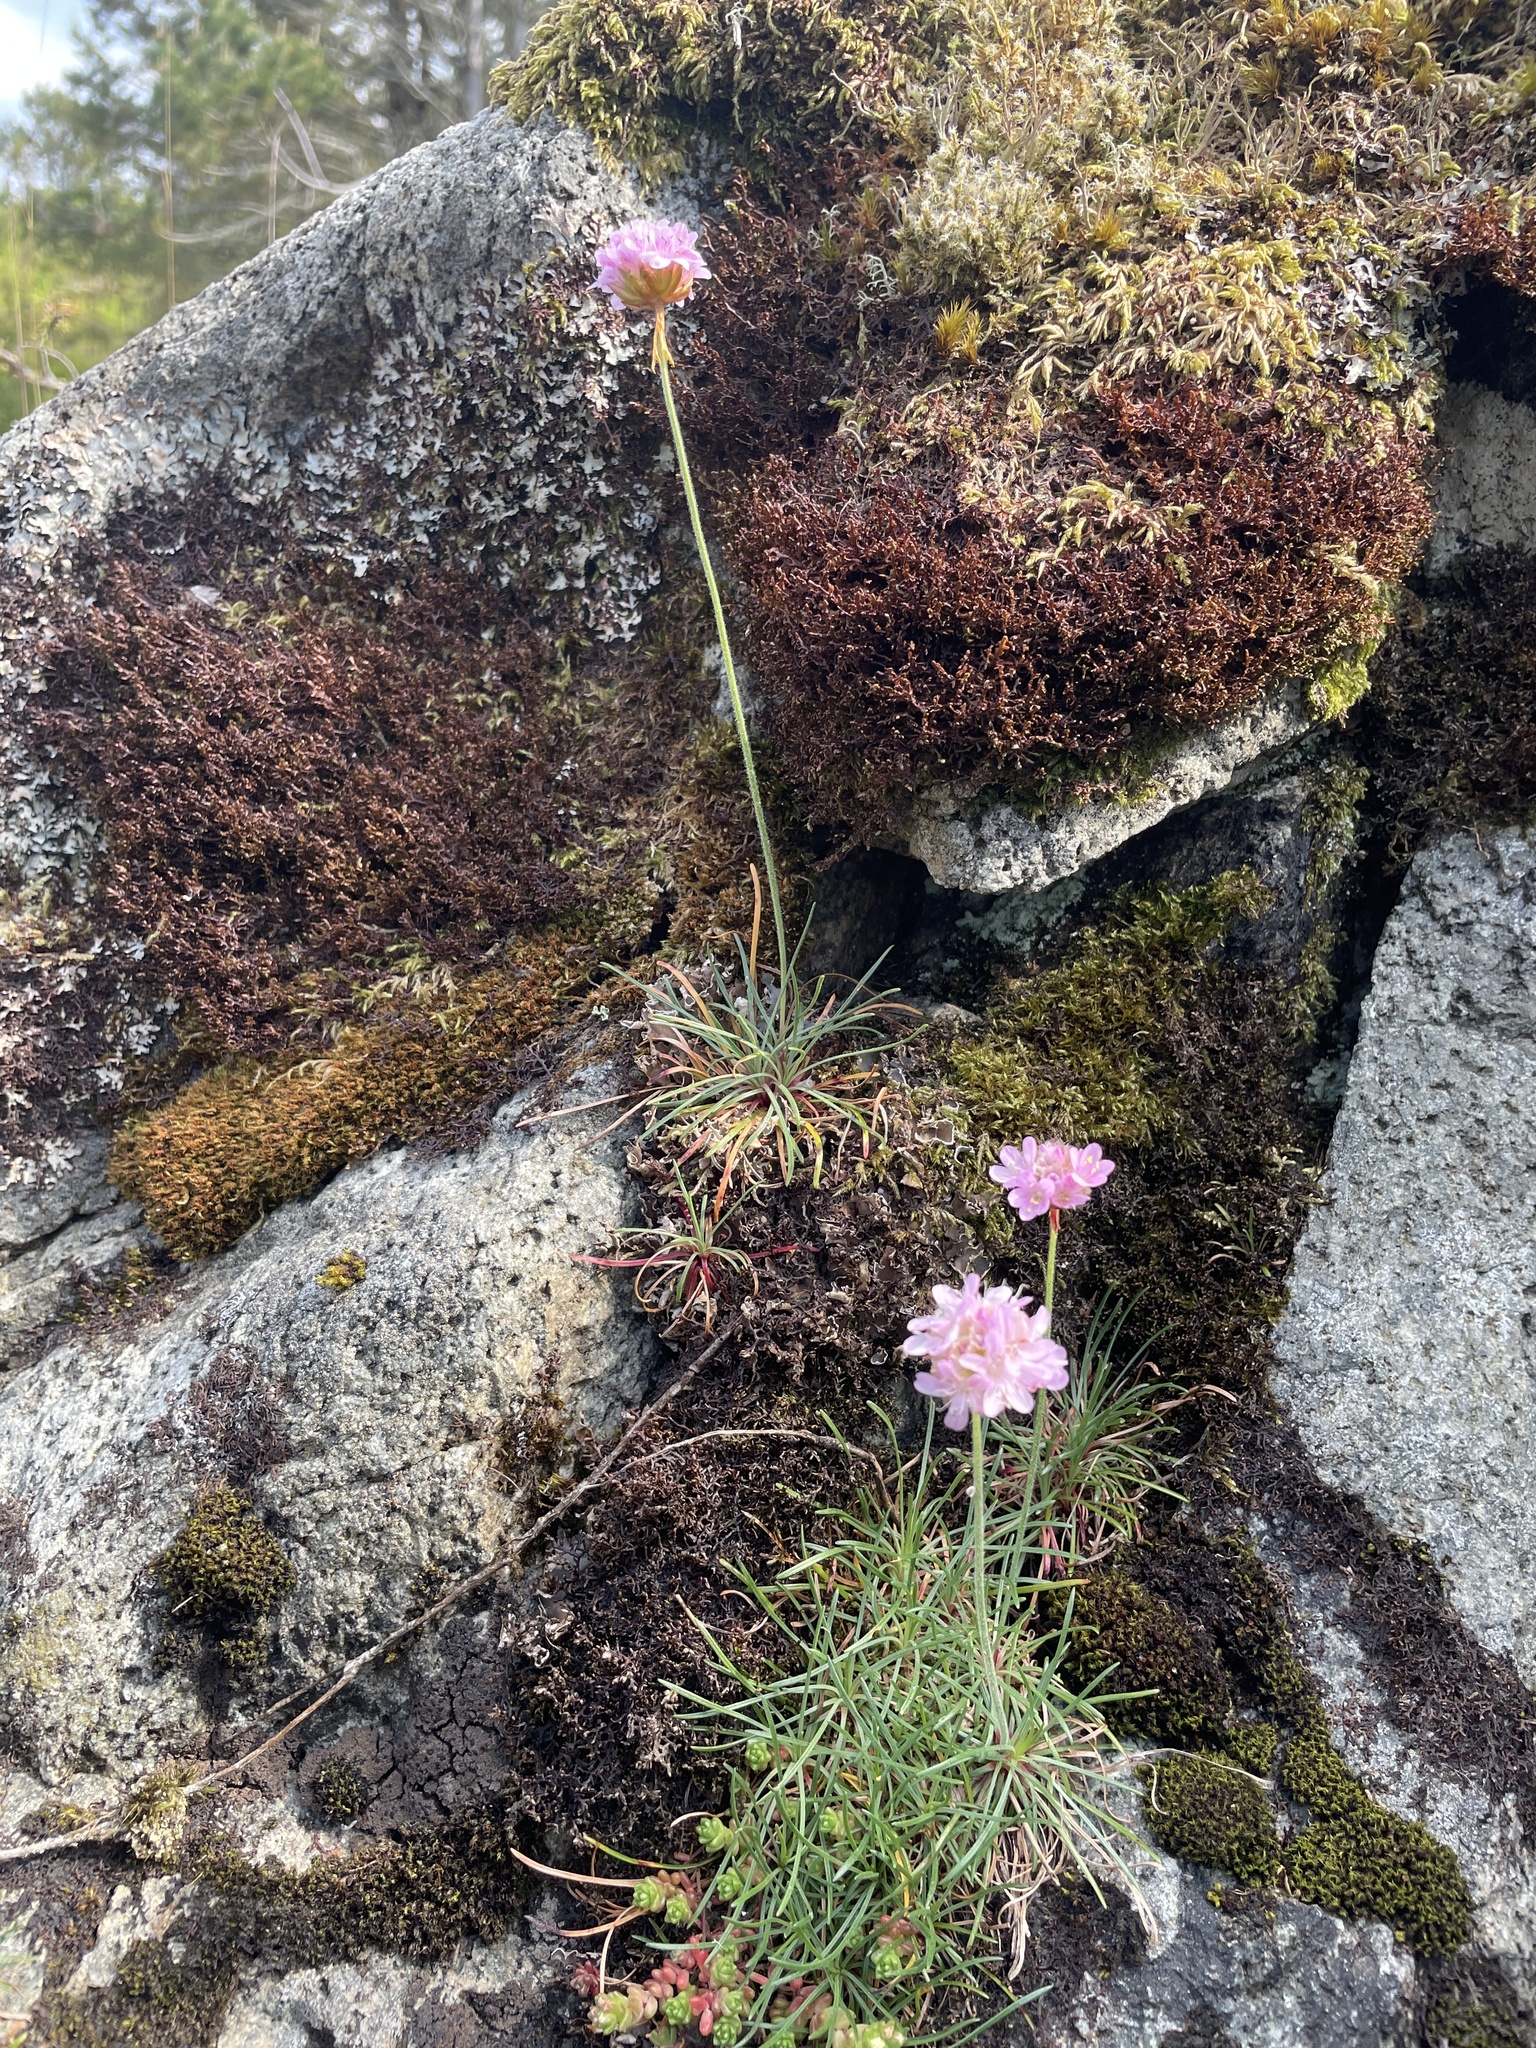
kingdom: Plantae
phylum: Tracheophyta
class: Magnoliopsida
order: Caryophyllales
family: Plumbaginaceae
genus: Armeria
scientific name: Armeria maritima
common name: Thrift
